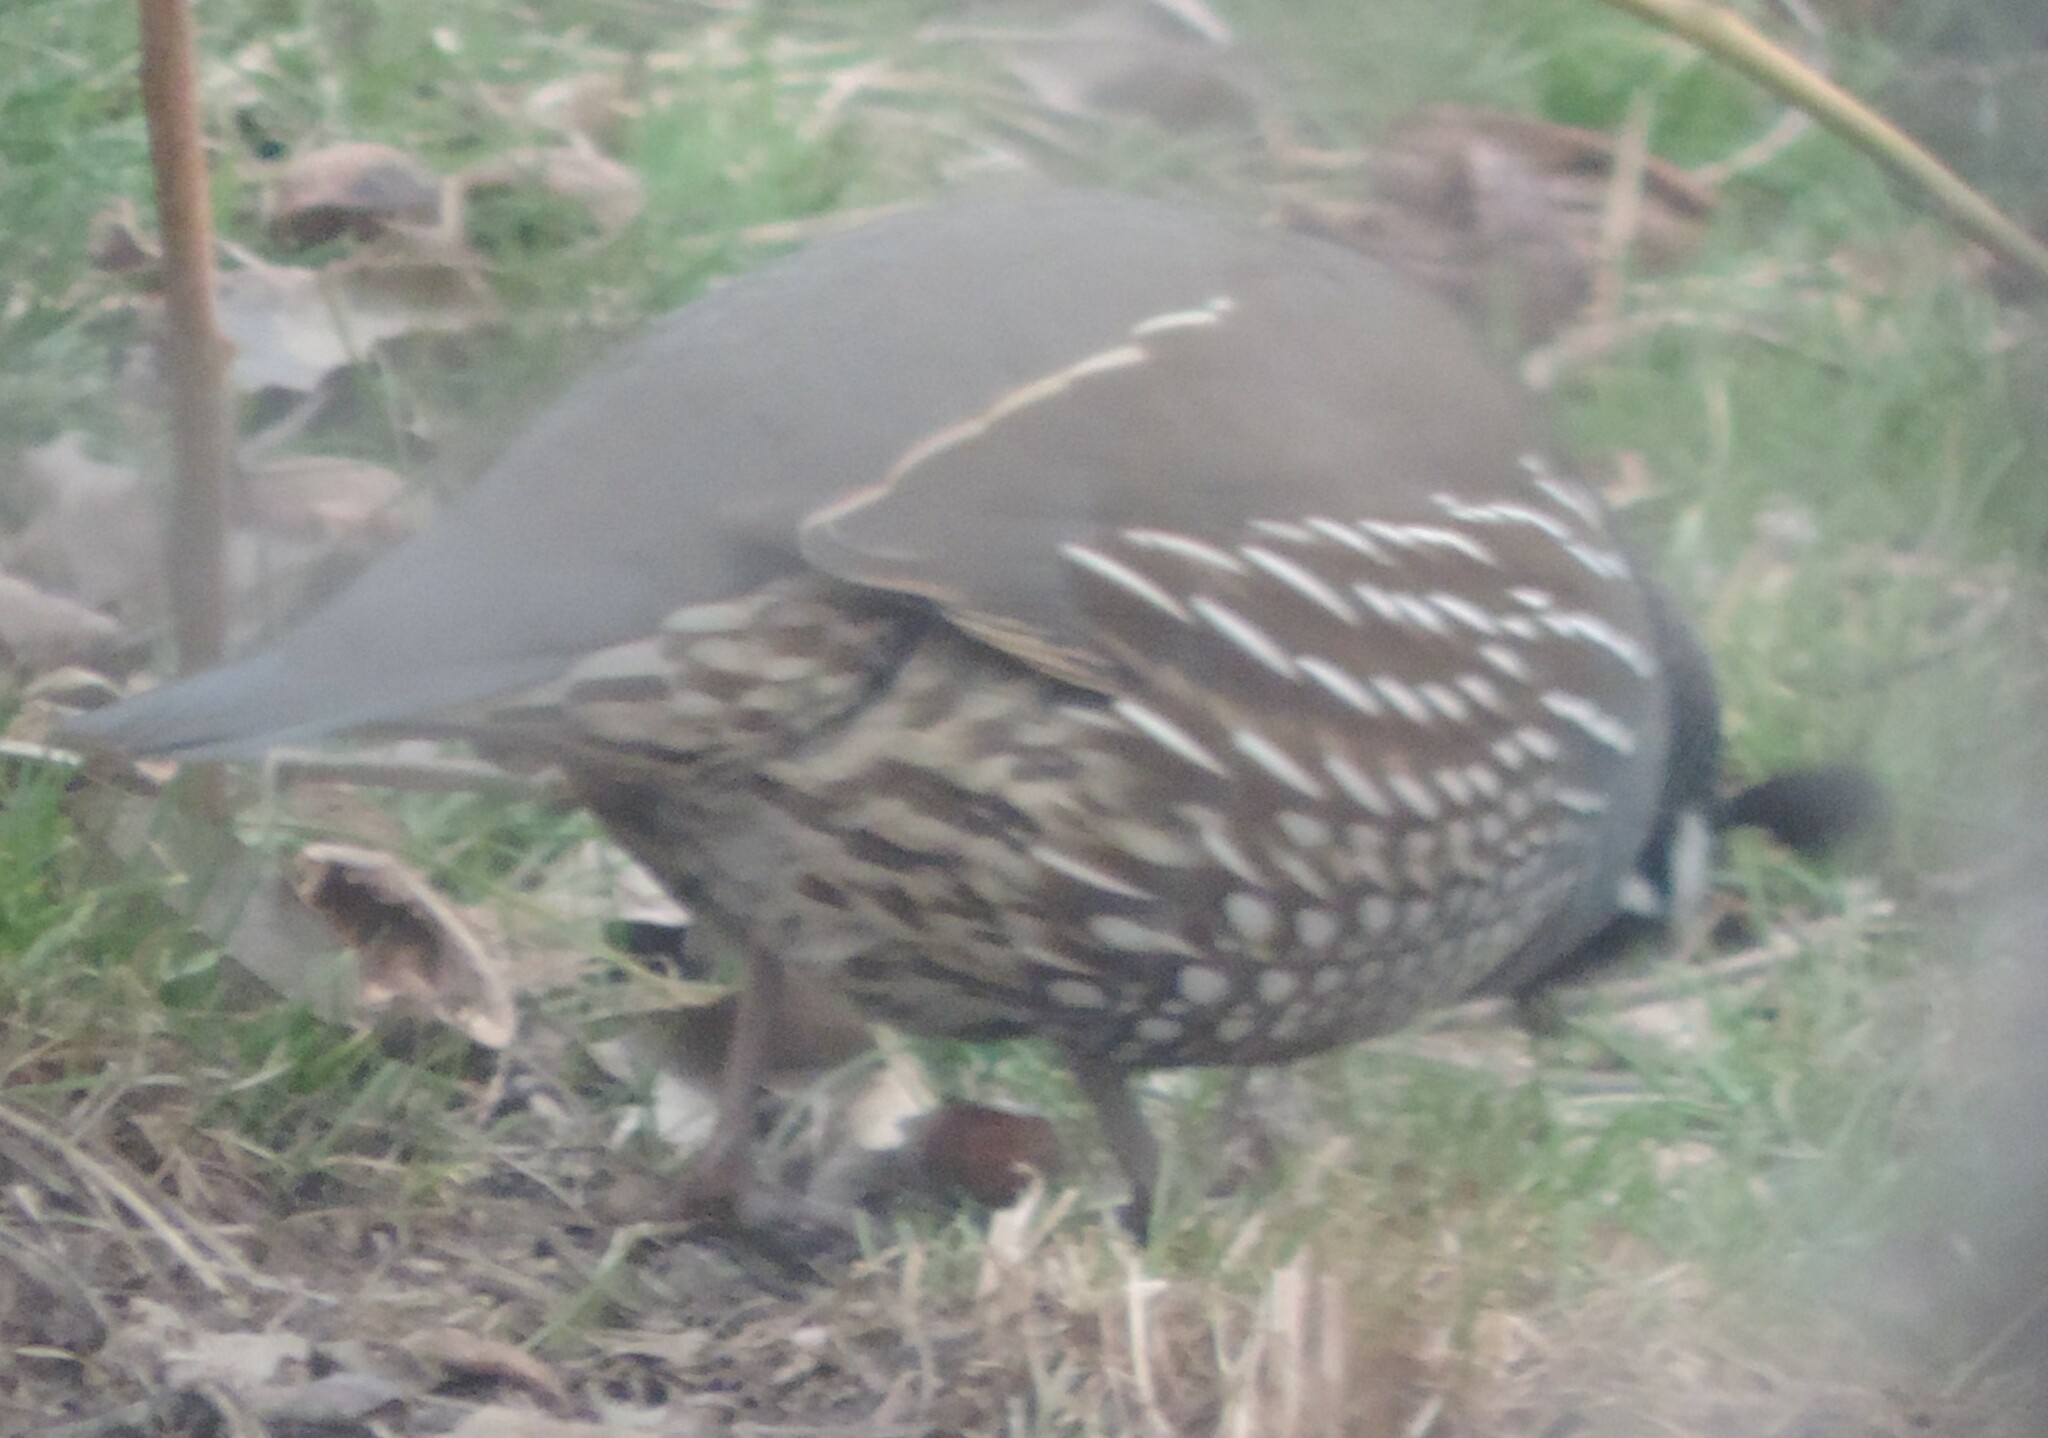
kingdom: Animalia
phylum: Chordata
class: Aves
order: Galliformes
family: Odontophoridae
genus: Callipepla
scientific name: Callipepla californica
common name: California quail
